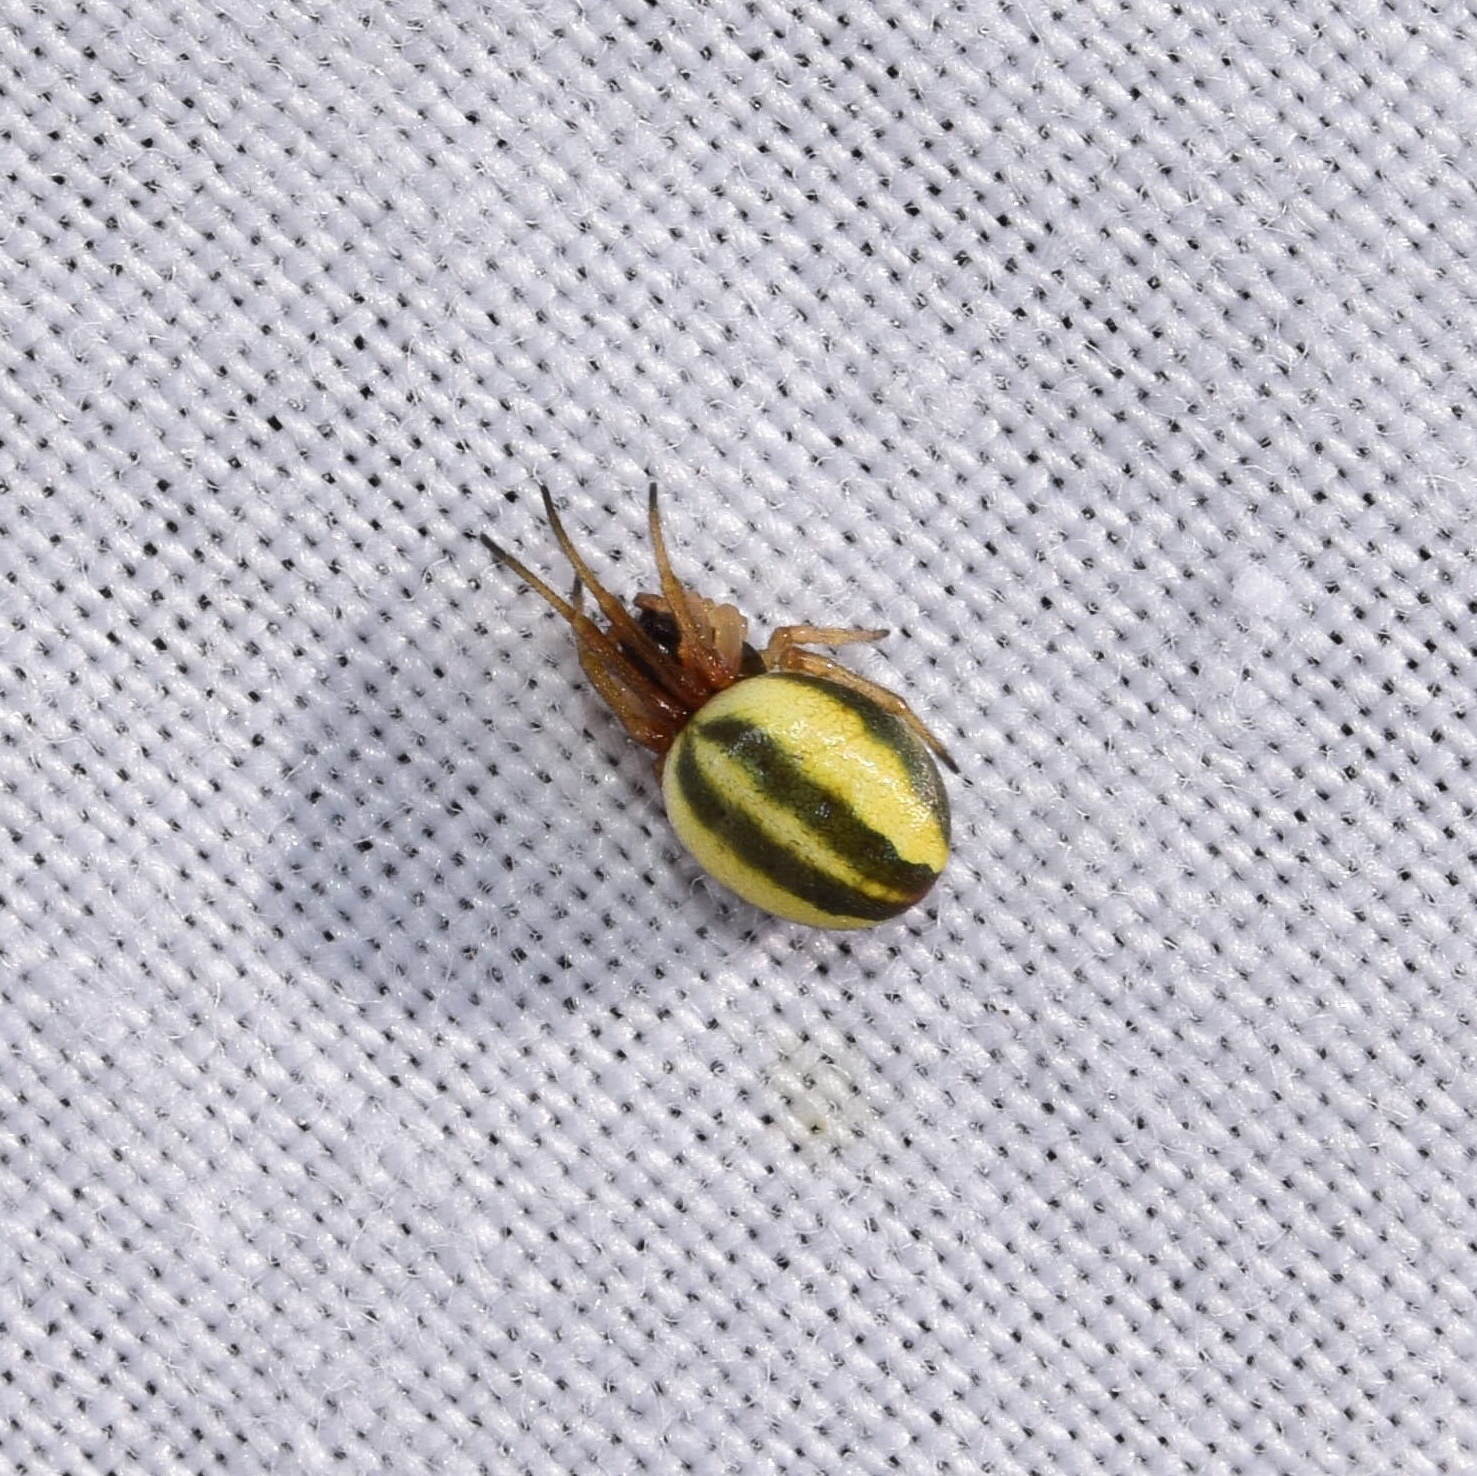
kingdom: Animalia
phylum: Arthropoda
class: Arachnida
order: Araneae
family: Araneidae
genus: Singa
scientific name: Singa albodorsata
